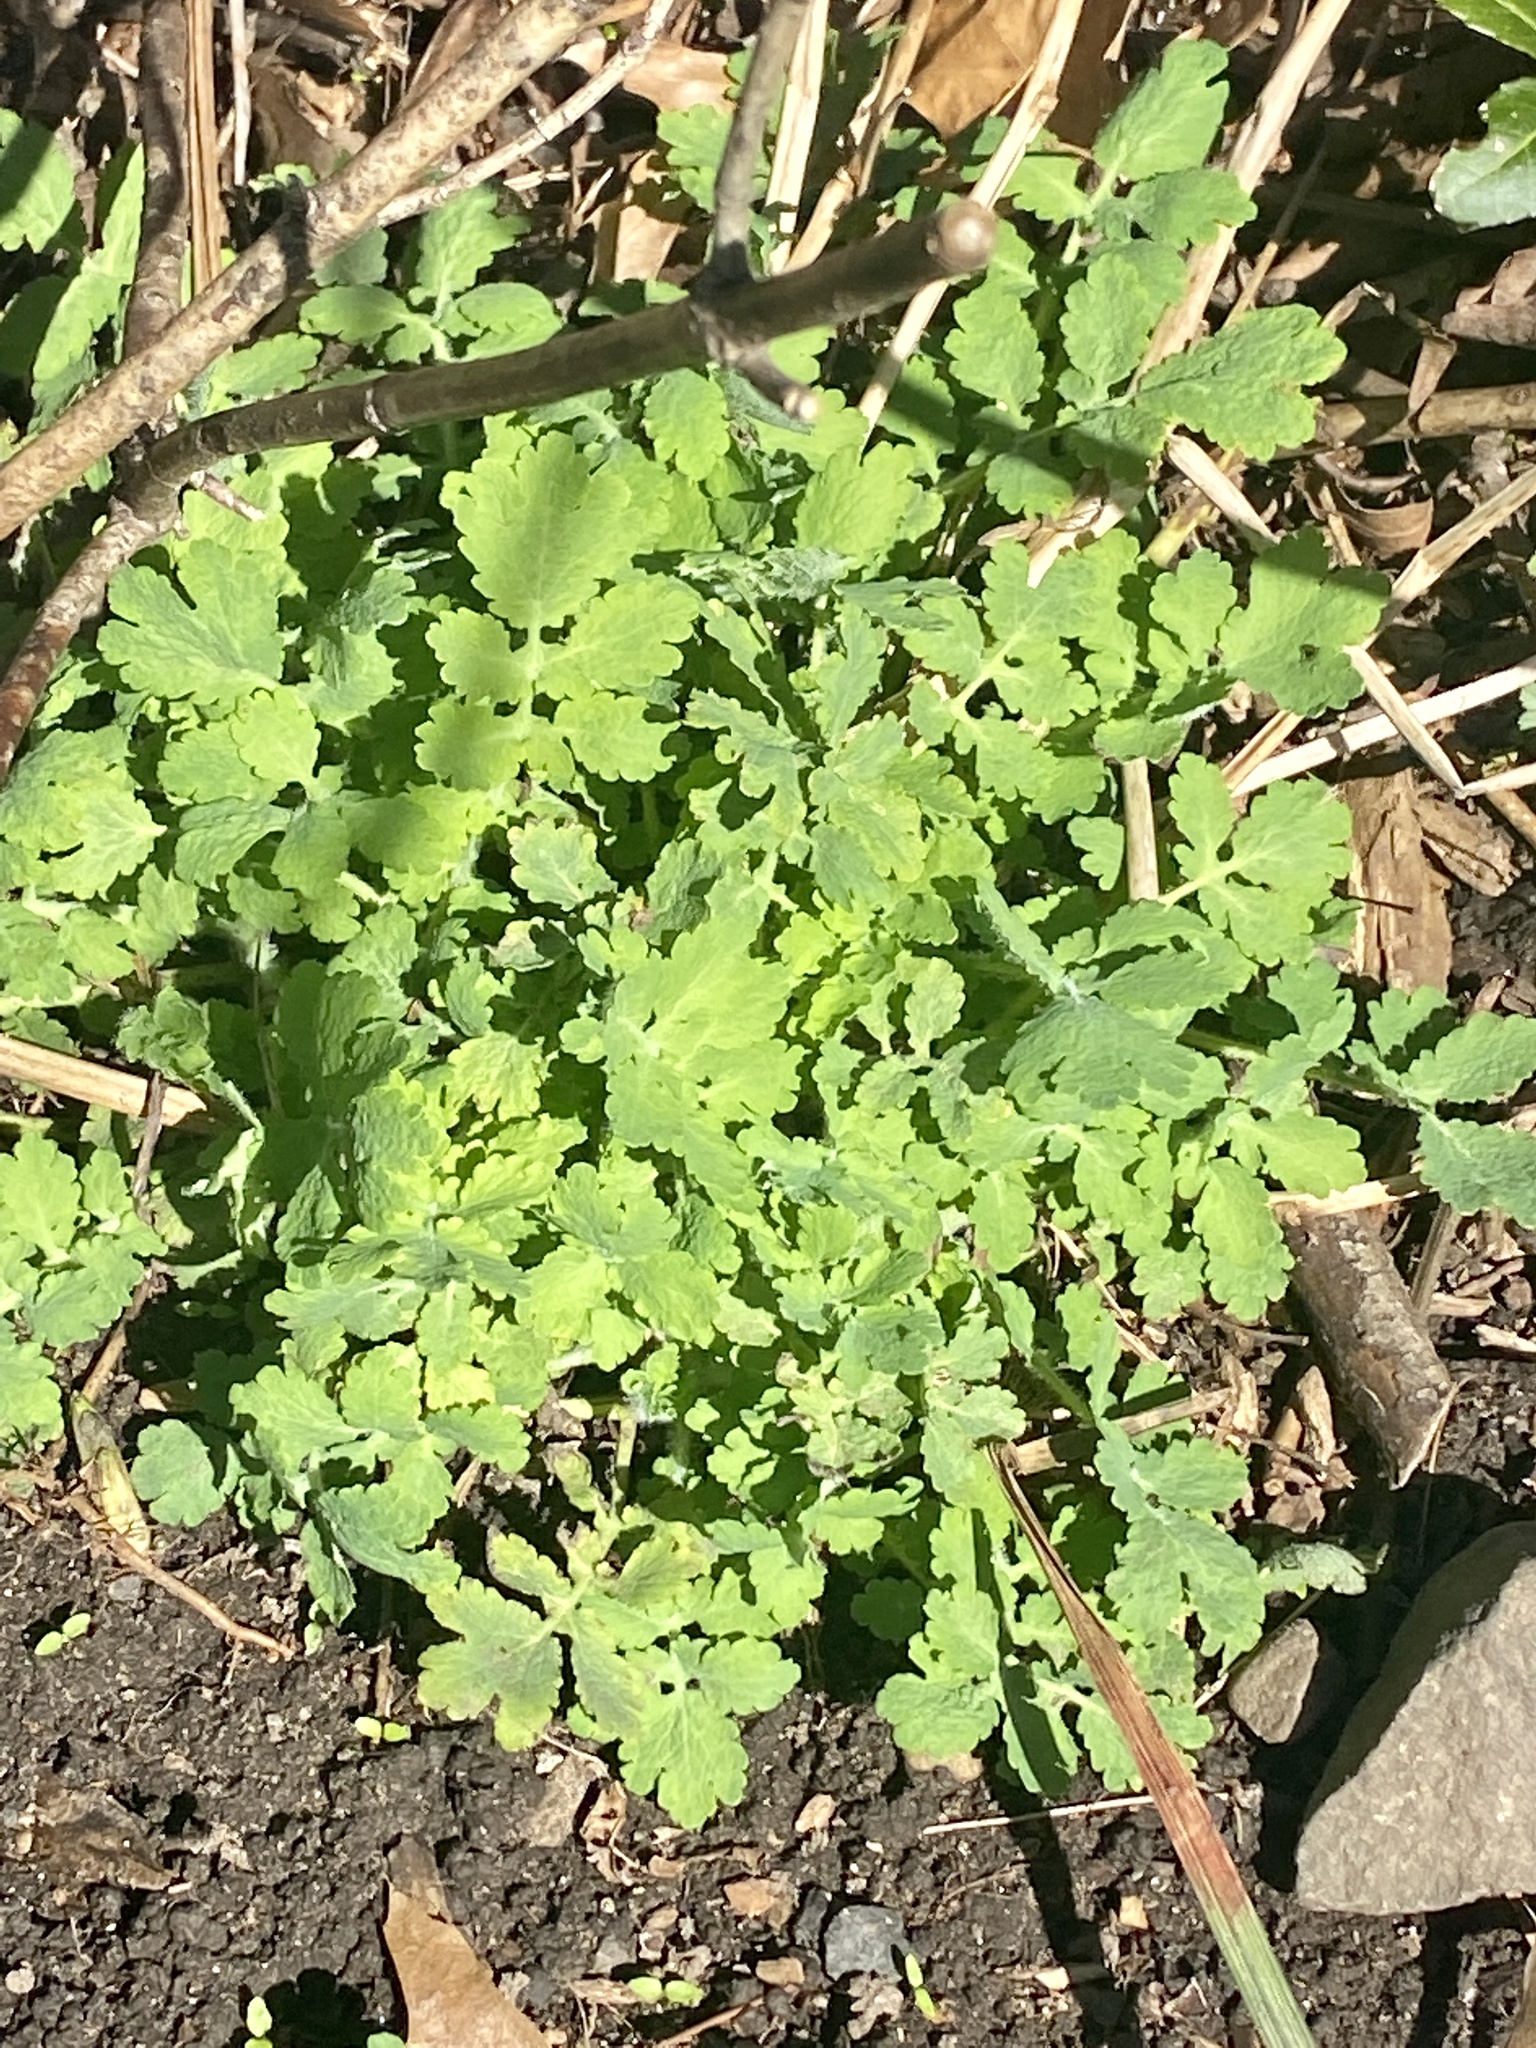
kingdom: Plantae
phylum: Tracheophyta
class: Magnoliopsida
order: Ranunculales
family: Papaveraceae
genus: Chelidonium
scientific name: Chelidonium majus
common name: Greater celandine
